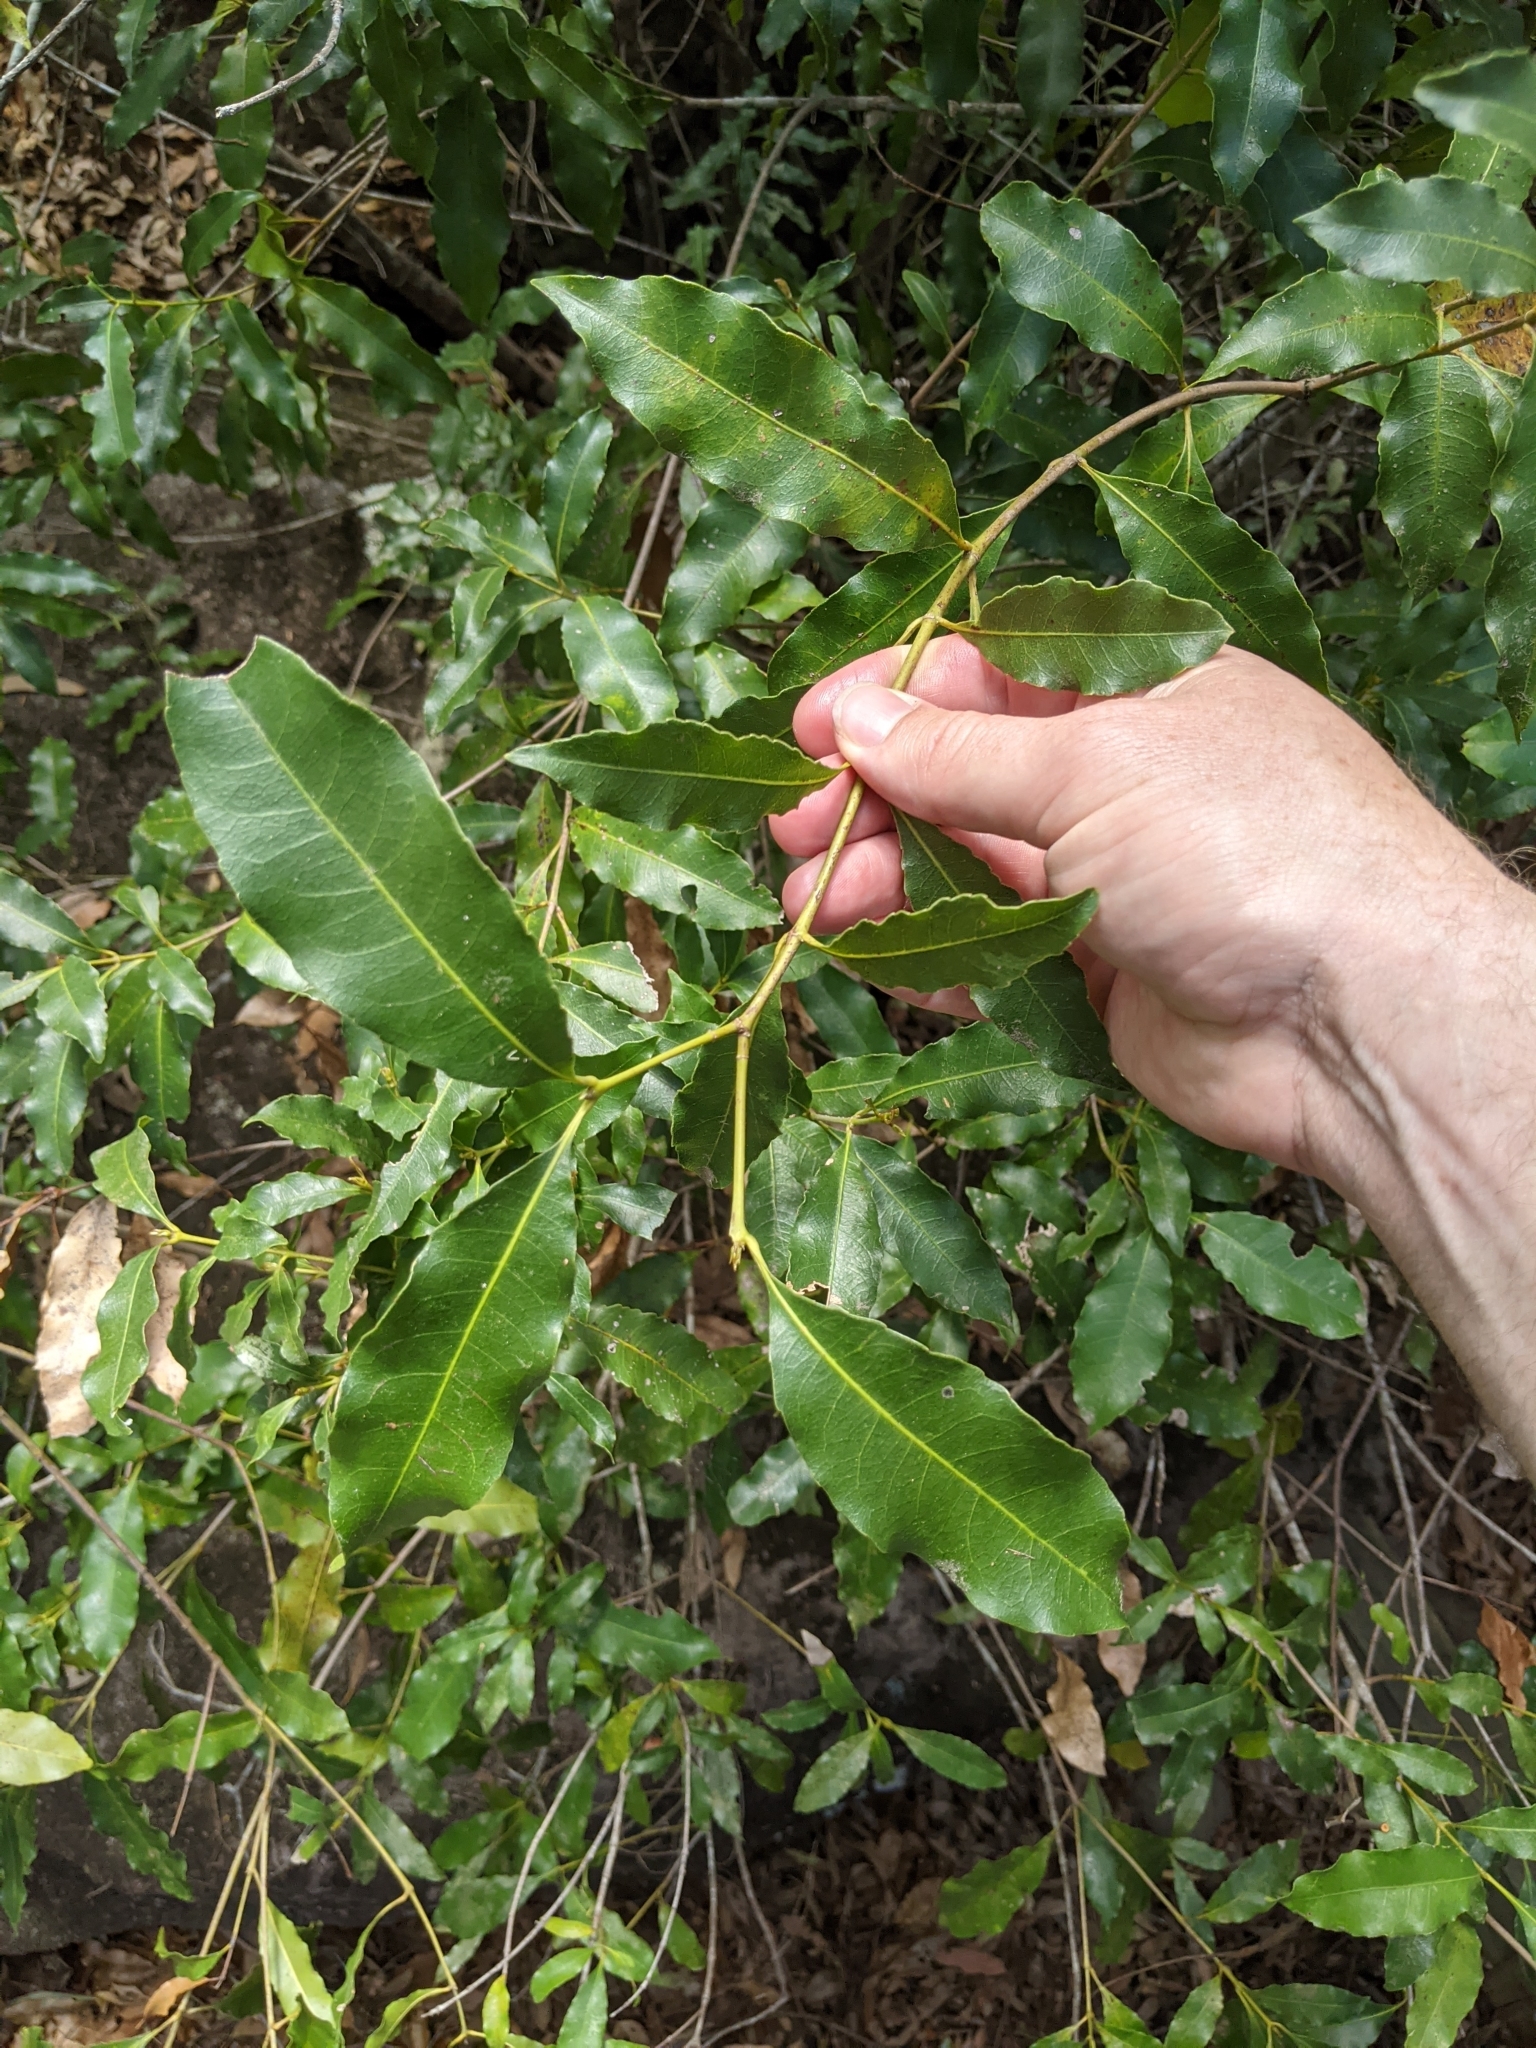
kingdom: Plantae
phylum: Tracheophyta
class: Magnoliopsida
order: Oxalidales
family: Cunoniaceae
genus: Schizomeria
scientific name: Schizomeria ovata
